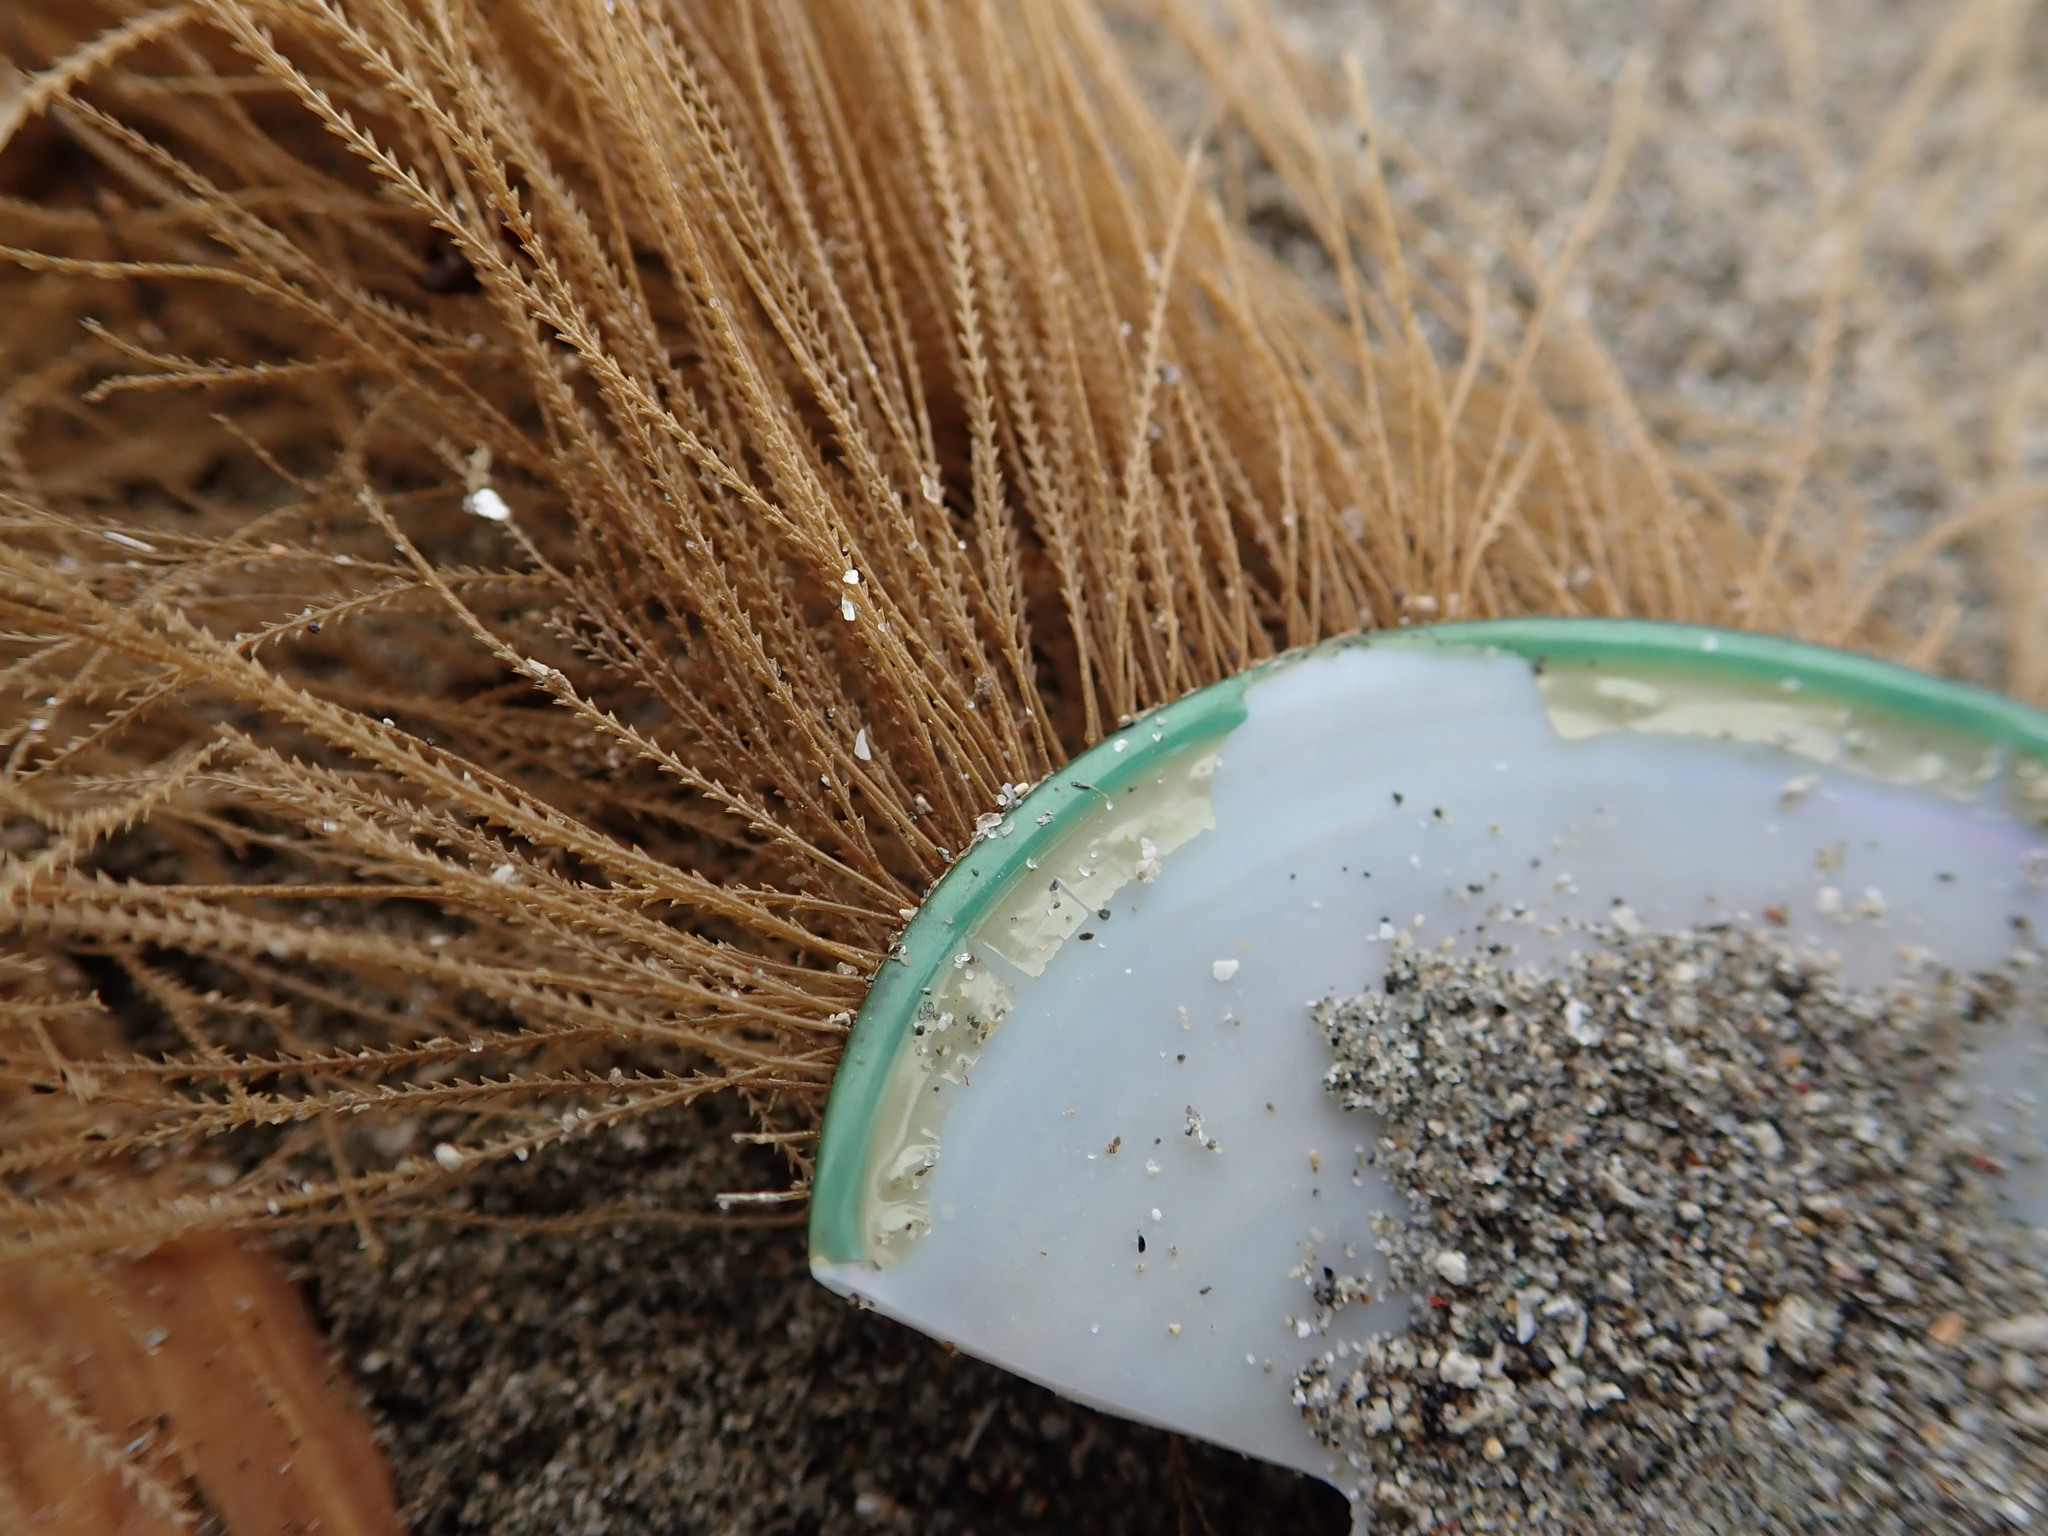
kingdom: Animalia
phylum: Cnidaria
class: Hydrozoa
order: Leptothecata
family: Sertulariidae
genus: Amphisbetia
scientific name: Amphisbetia bispinosa
